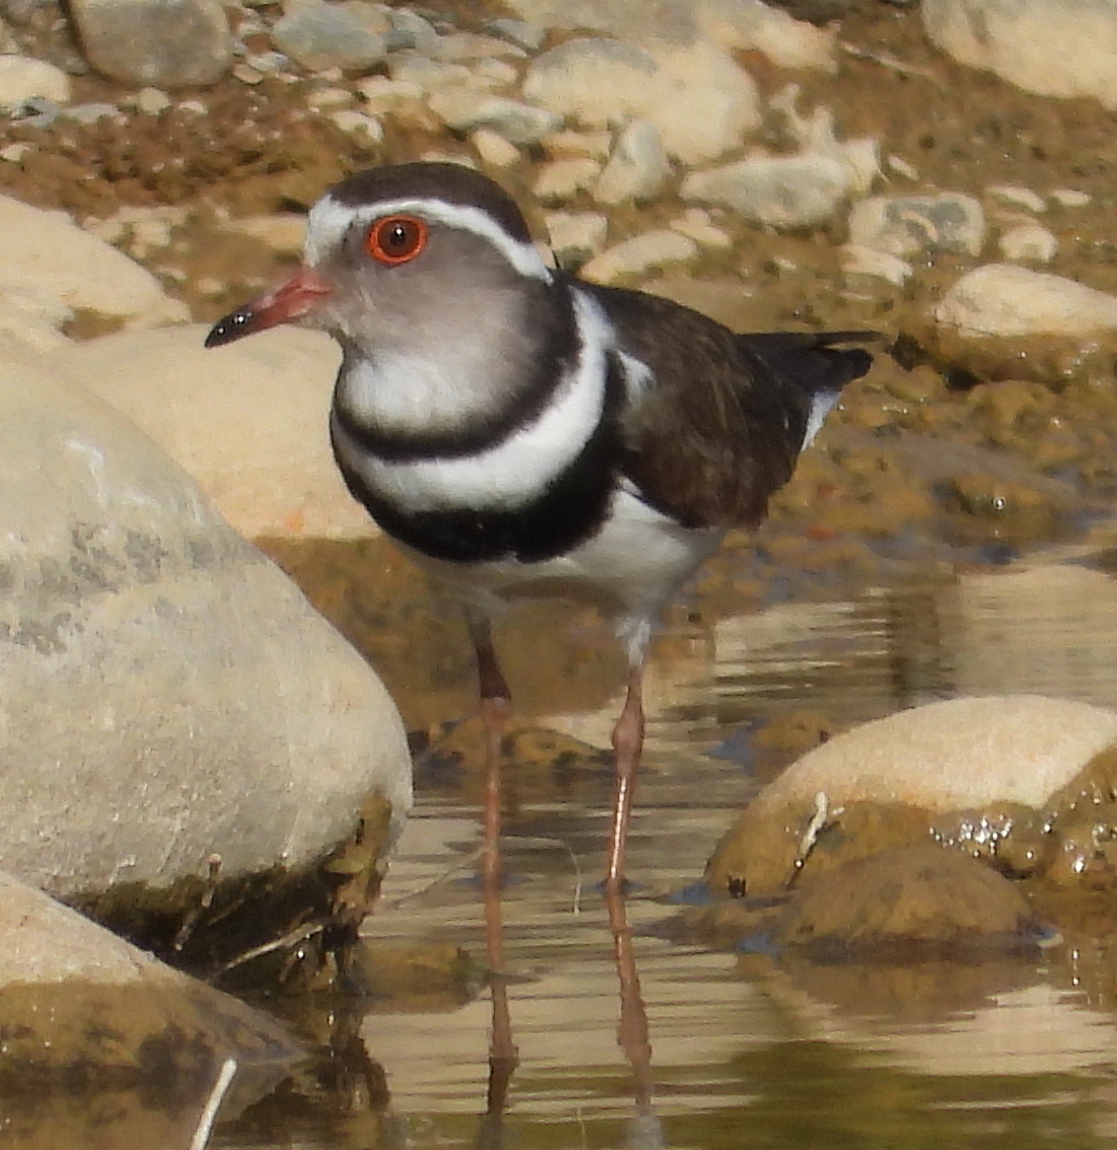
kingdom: Animalia
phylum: Chordata
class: Aves
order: Charadriiformes
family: Charadriidae
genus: Charadrius
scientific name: Charadrius tricollaris
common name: Three-banded plover
